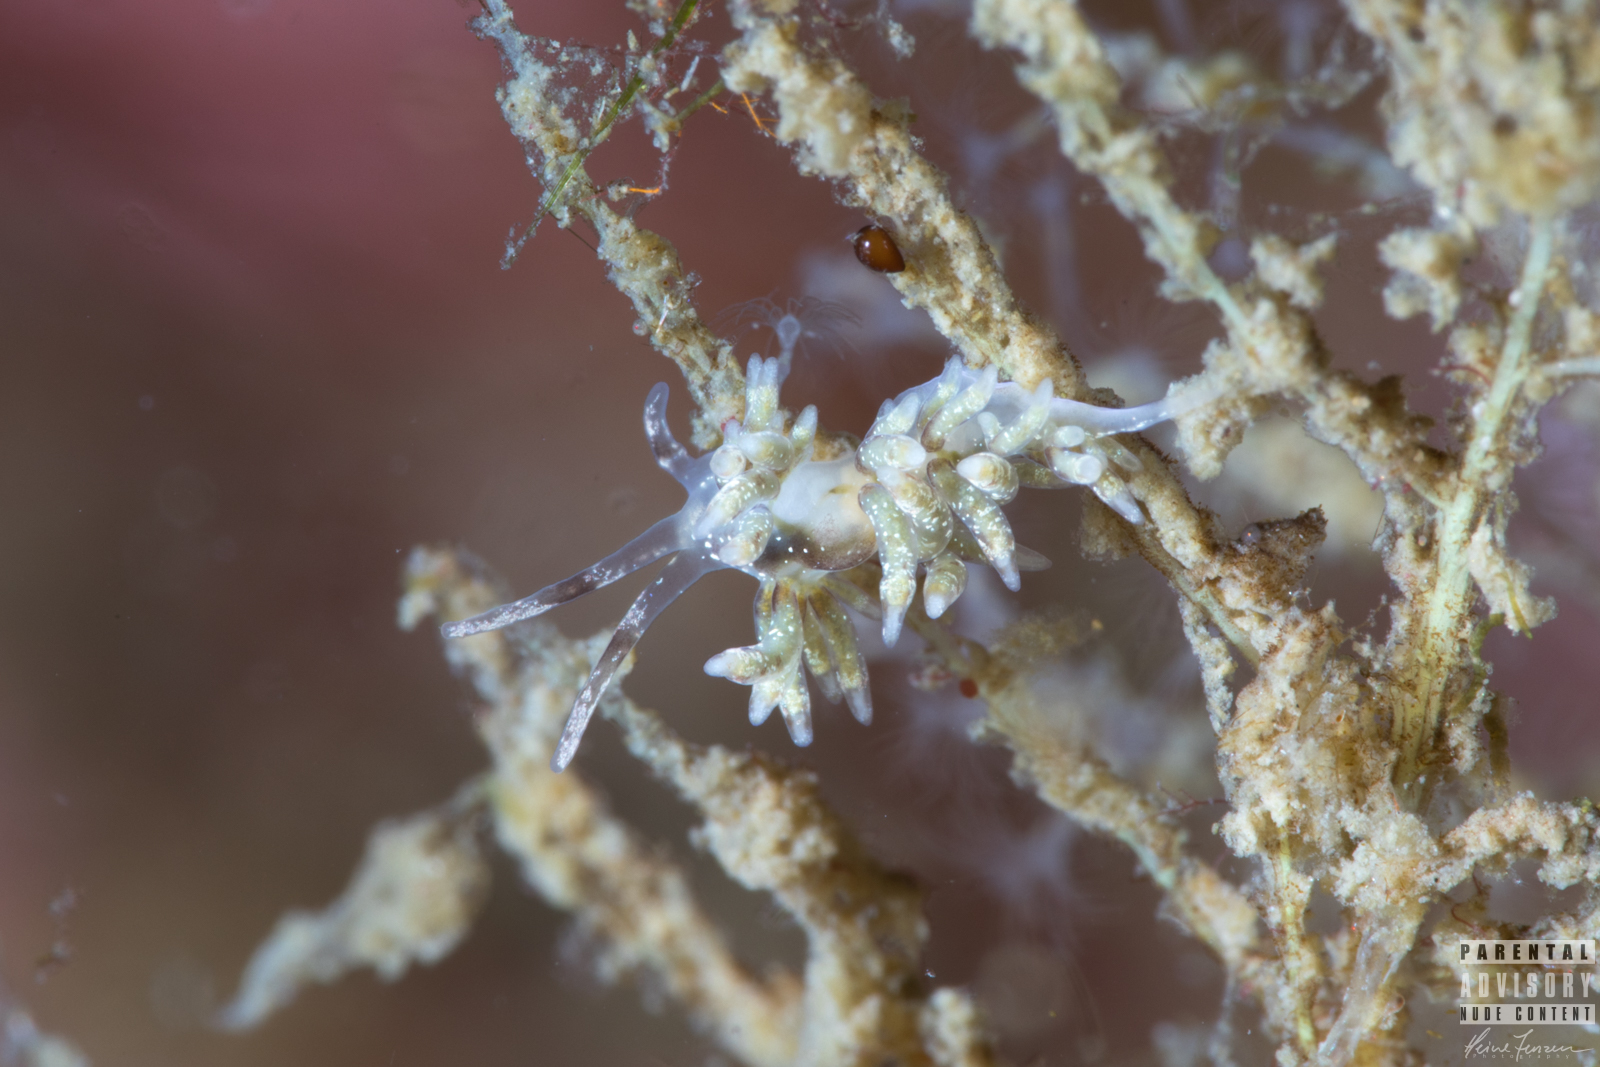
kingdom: Animalia
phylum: Mollusca
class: Gastropoda
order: Nudibranchia
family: Trinchesiidae
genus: Rubramoena
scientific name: Rubramoena amoena
